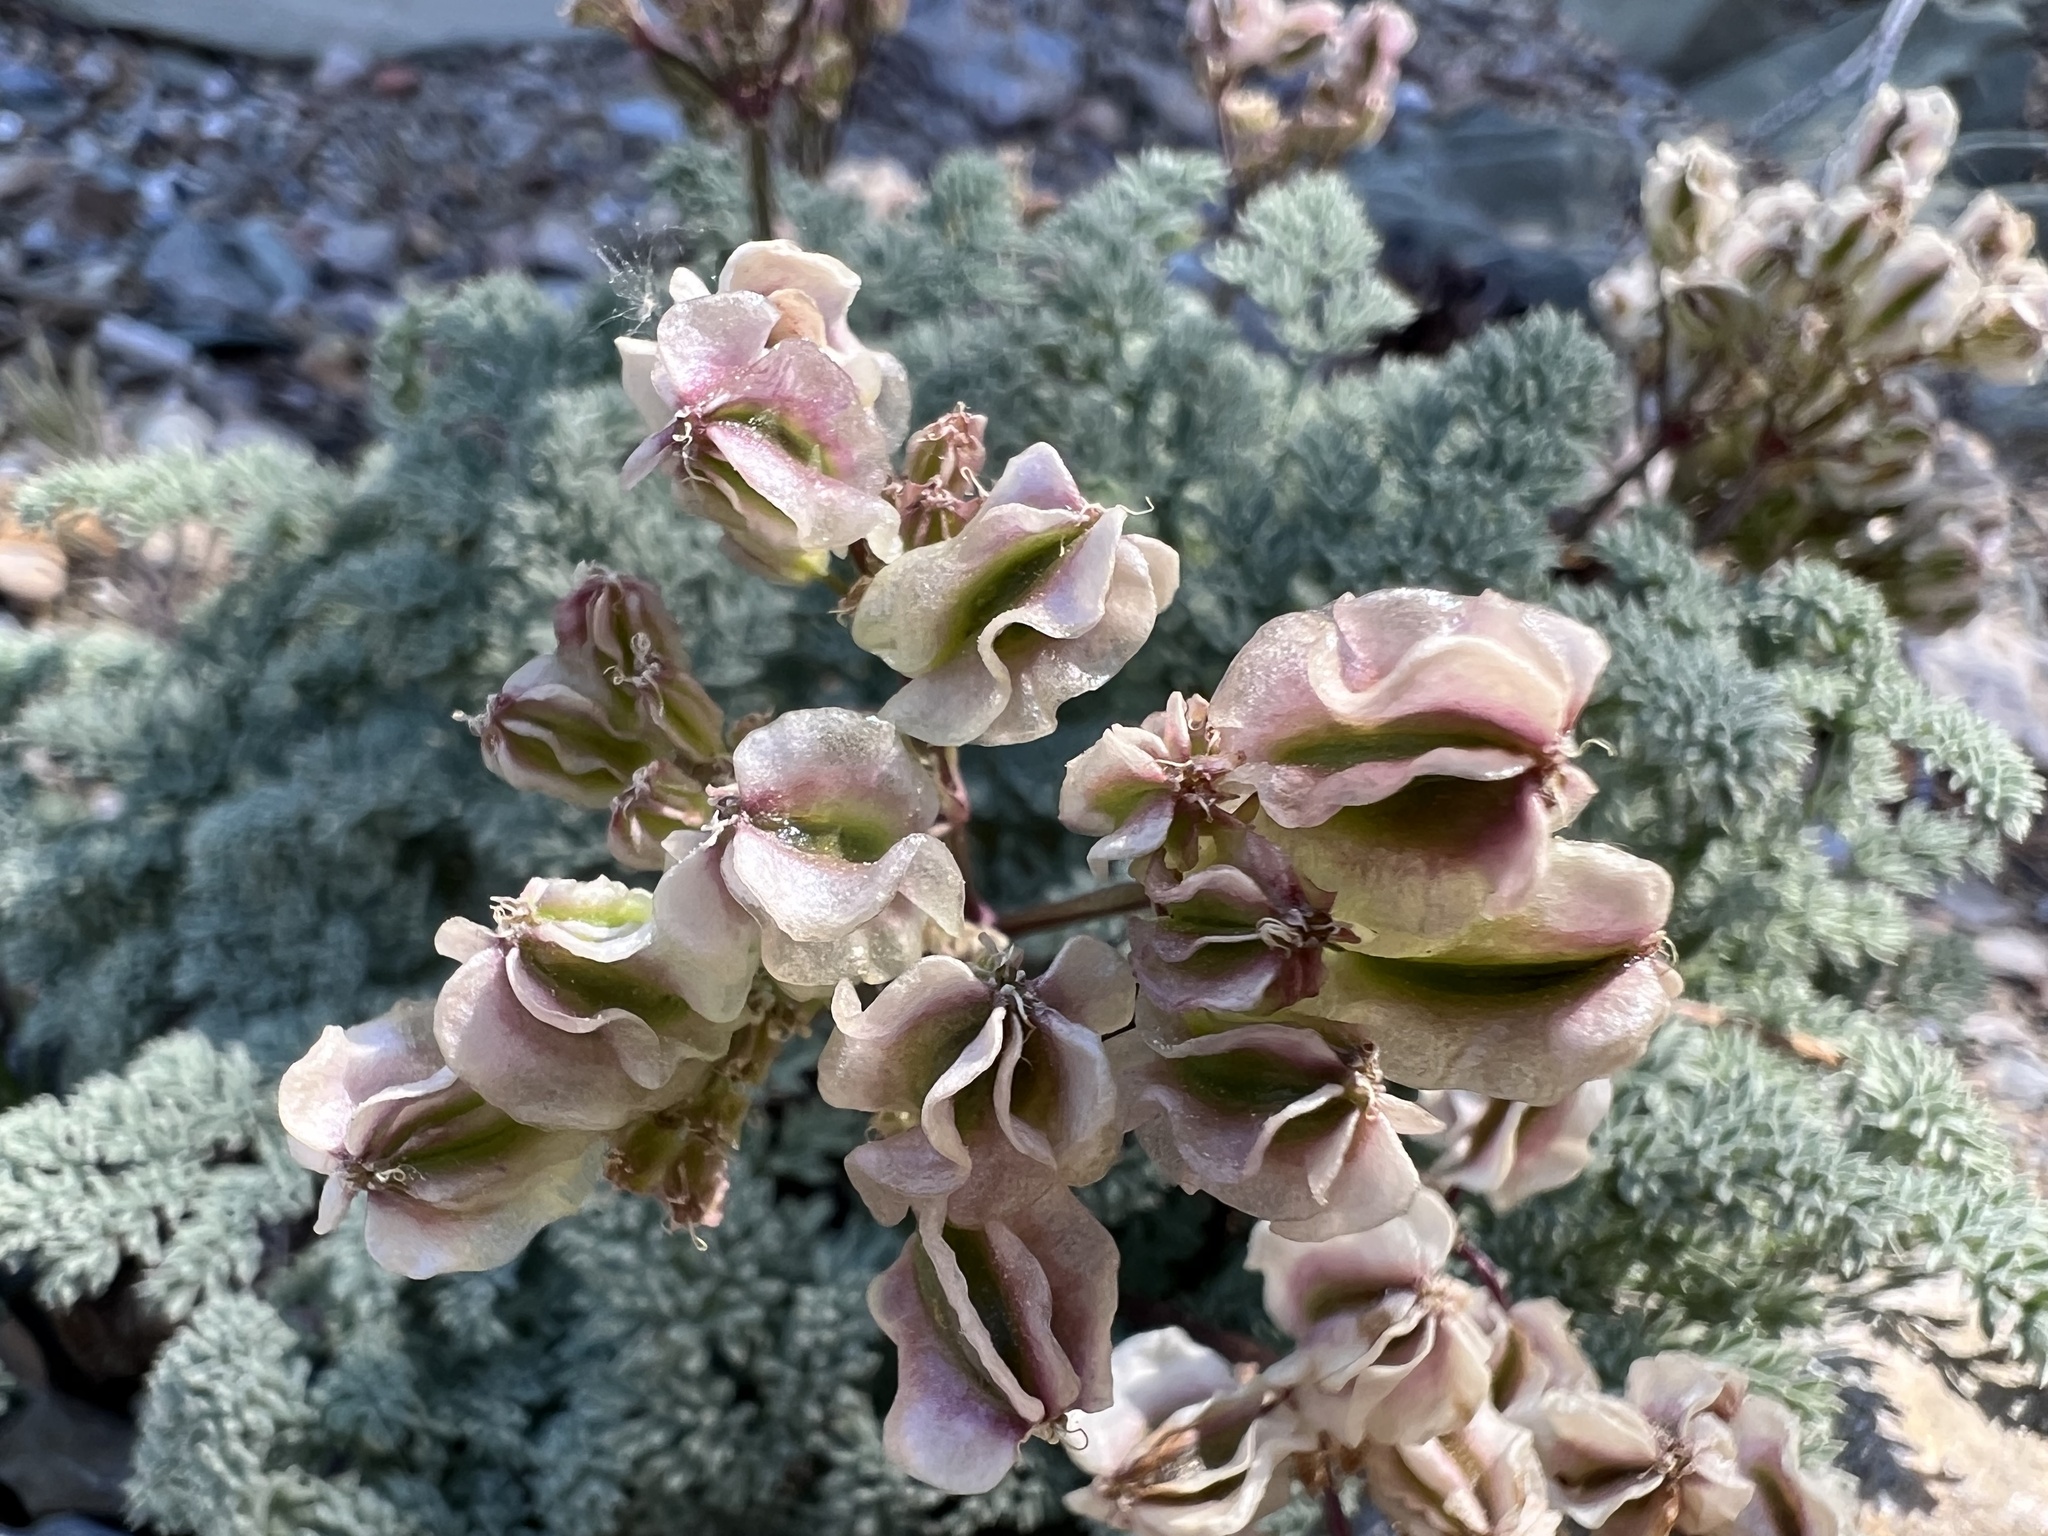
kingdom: Plantae
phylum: Tracheophyta
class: Magnoliopsida
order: Apiales
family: Apiaceae
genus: Aulospermum
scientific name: Aulospermum aboriginum
